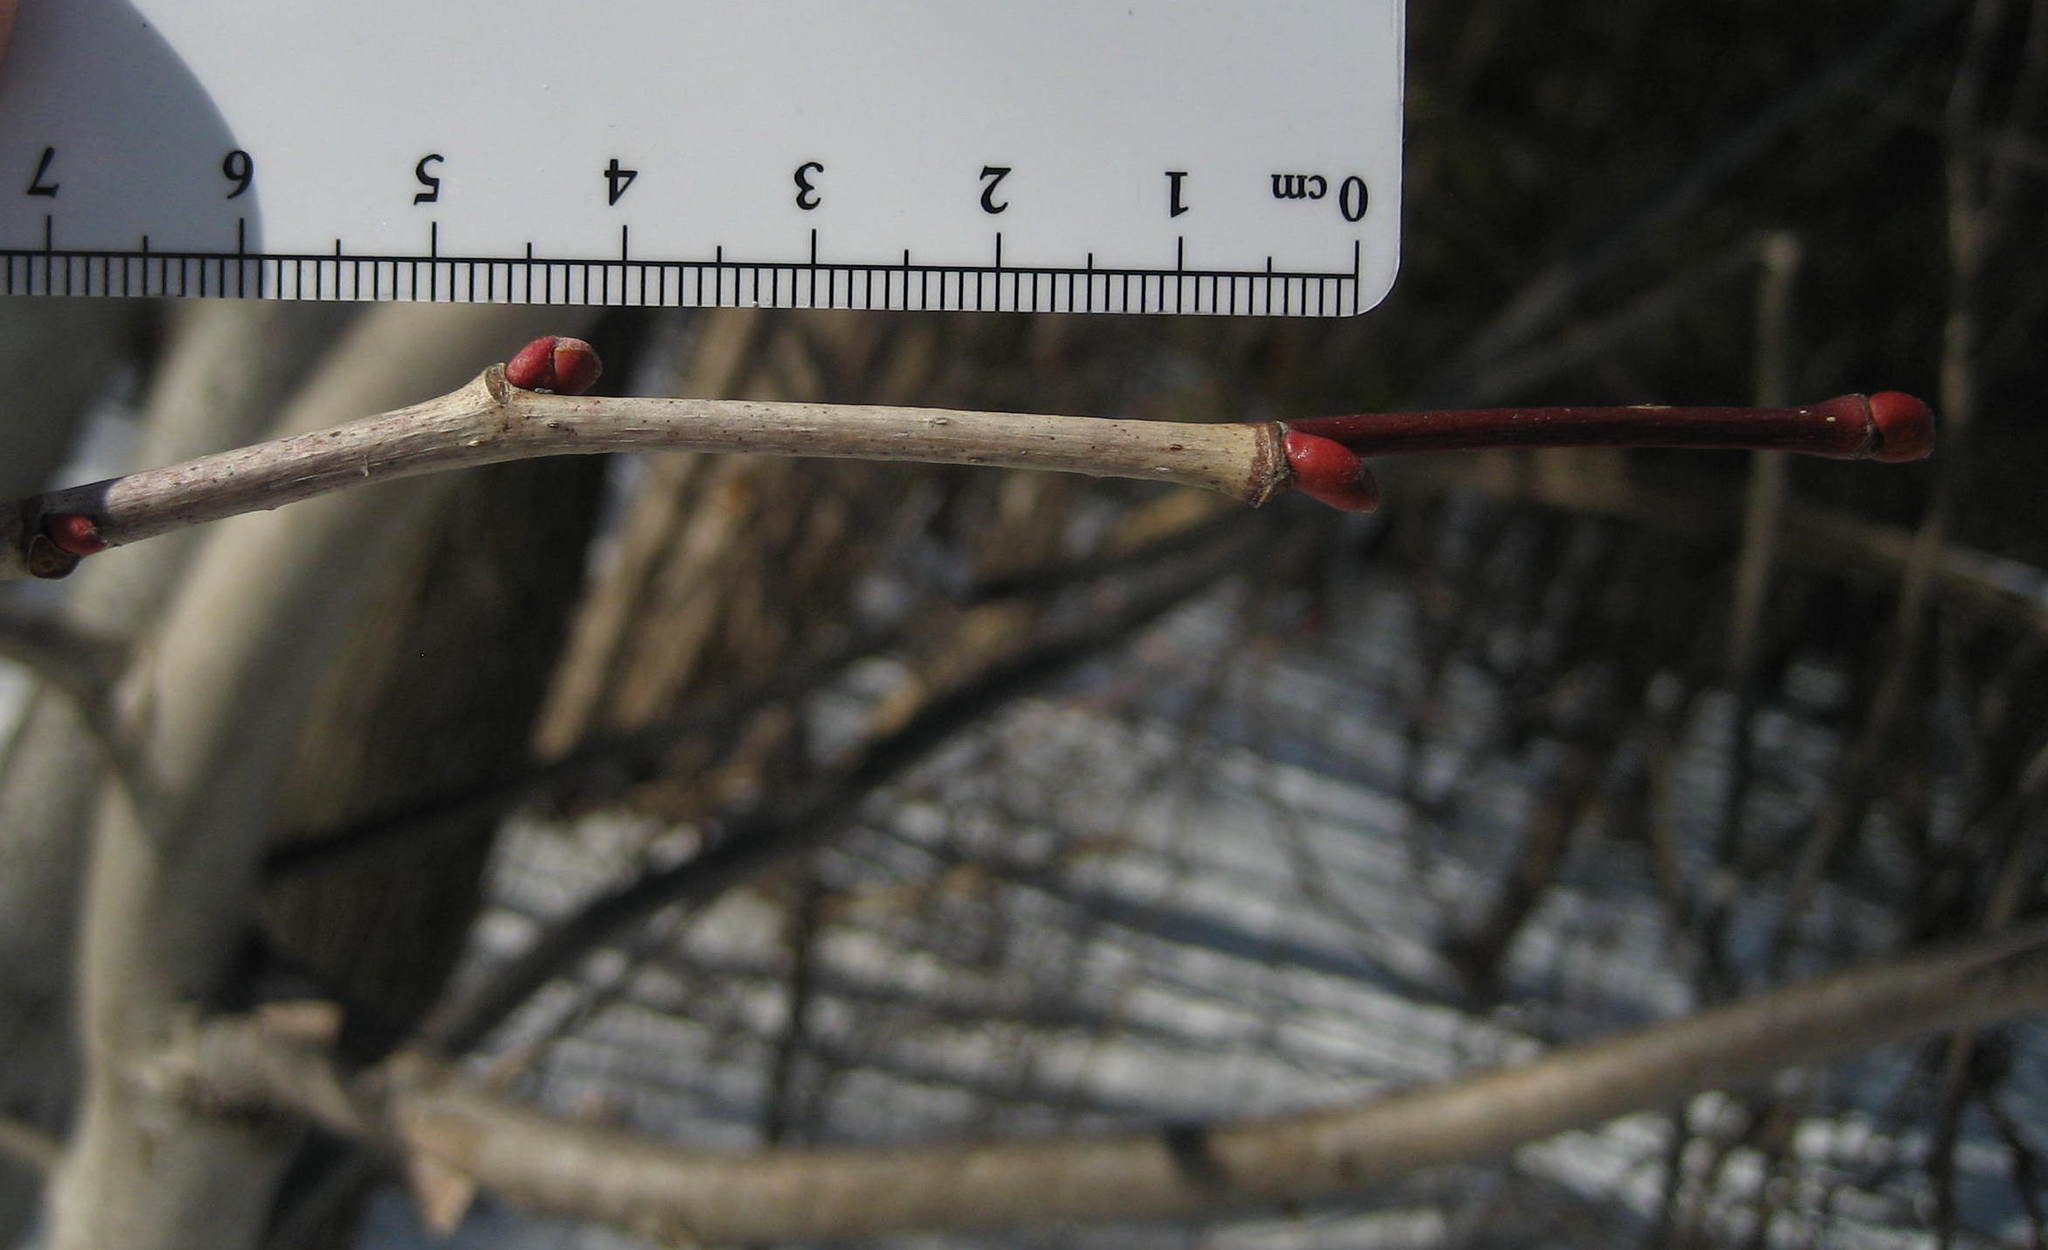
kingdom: Plantae
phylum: Tracheophyta
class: Magnoliopsida
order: Malvales
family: Malvaceae
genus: Tilia
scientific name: Tilia americana
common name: Basswood
